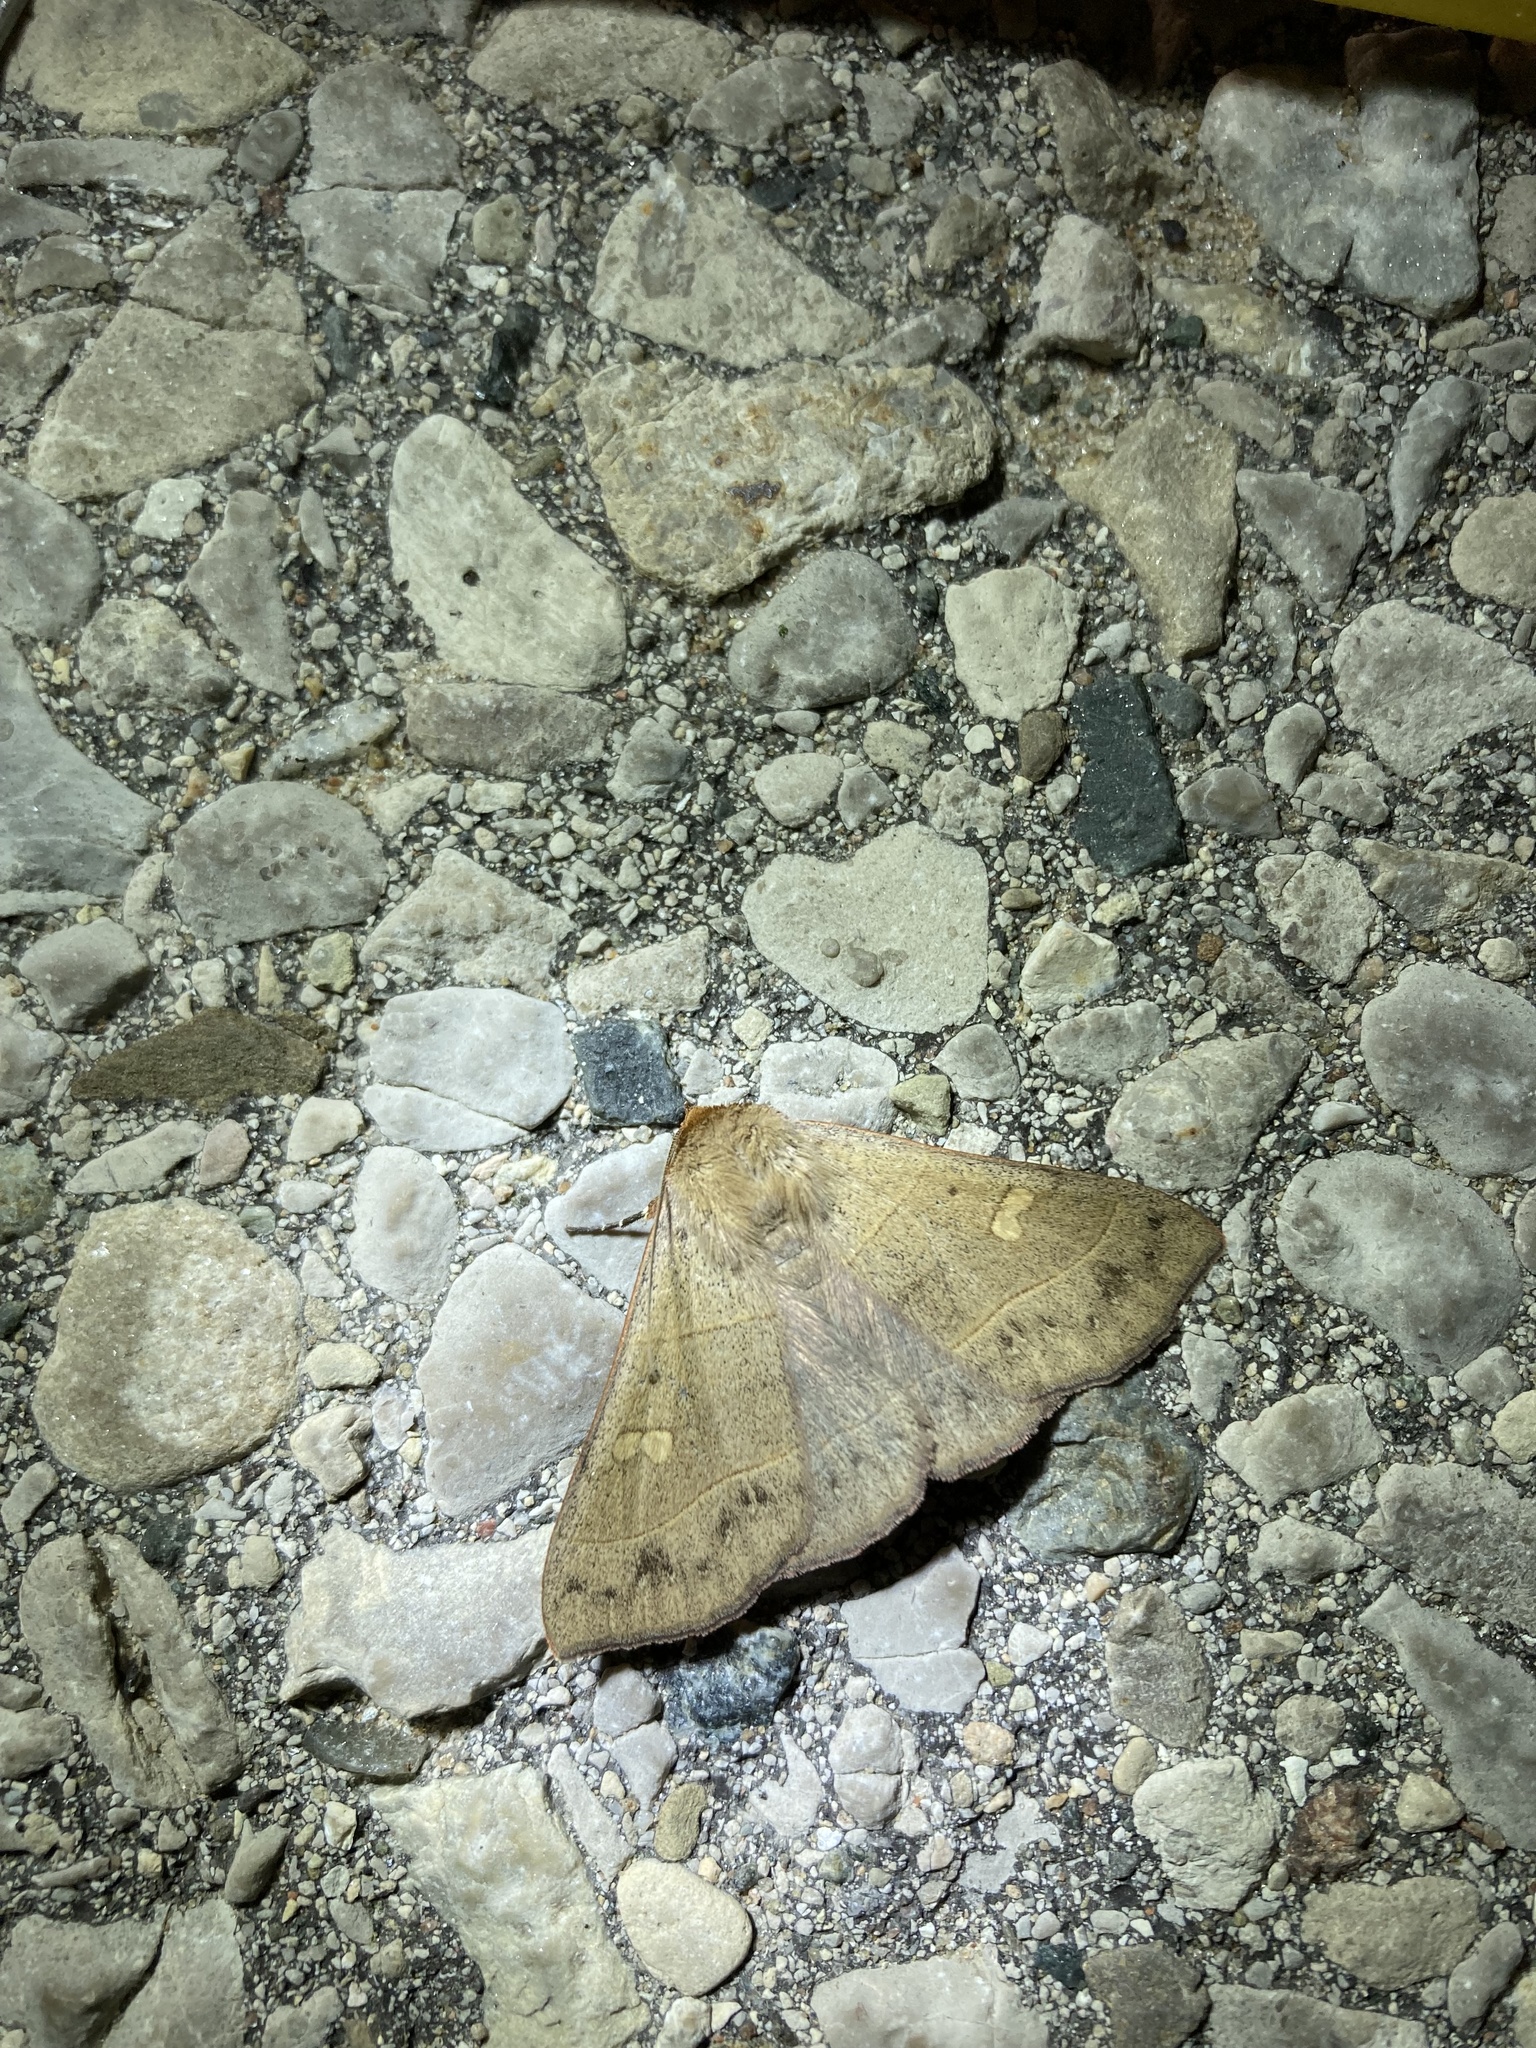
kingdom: Animalia
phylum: Arthropoda
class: Insecta
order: Lepidoptera
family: Erebidae
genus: Panopoda
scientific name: Panopoda rufimargo
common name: Red-lined panopoda moth
